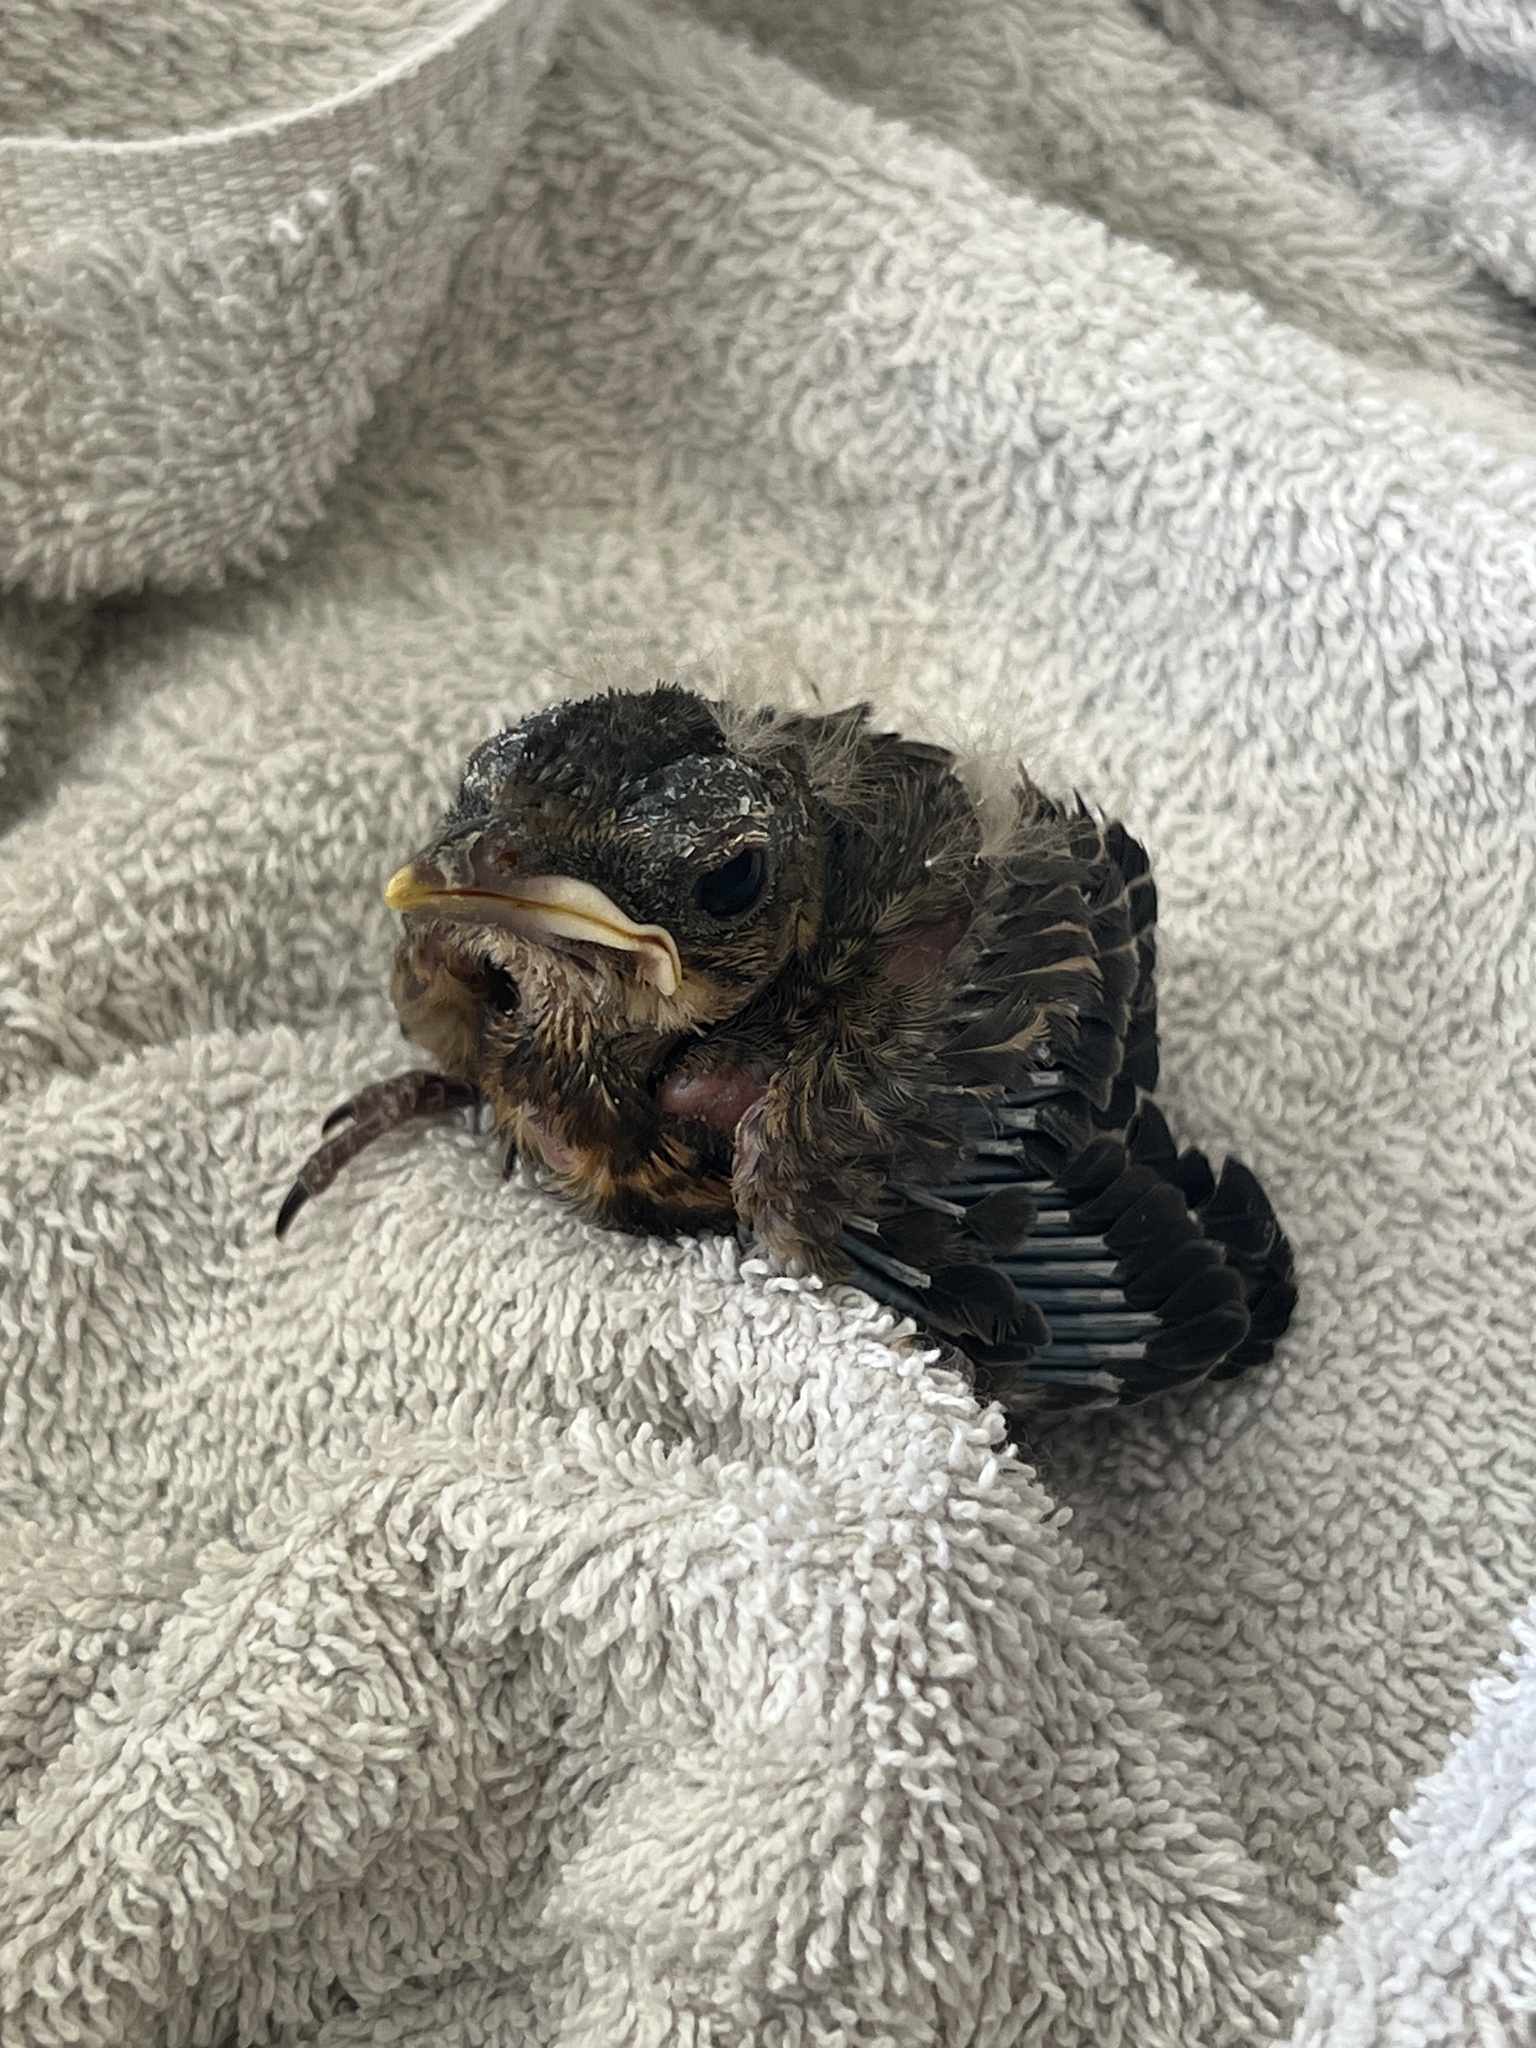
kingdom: Animalia
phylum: Chordata
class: Aves
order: Passeriformes
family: Corvidae
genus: Cyanocitta
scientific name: Cyanocitta cristata
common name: Blue jay
